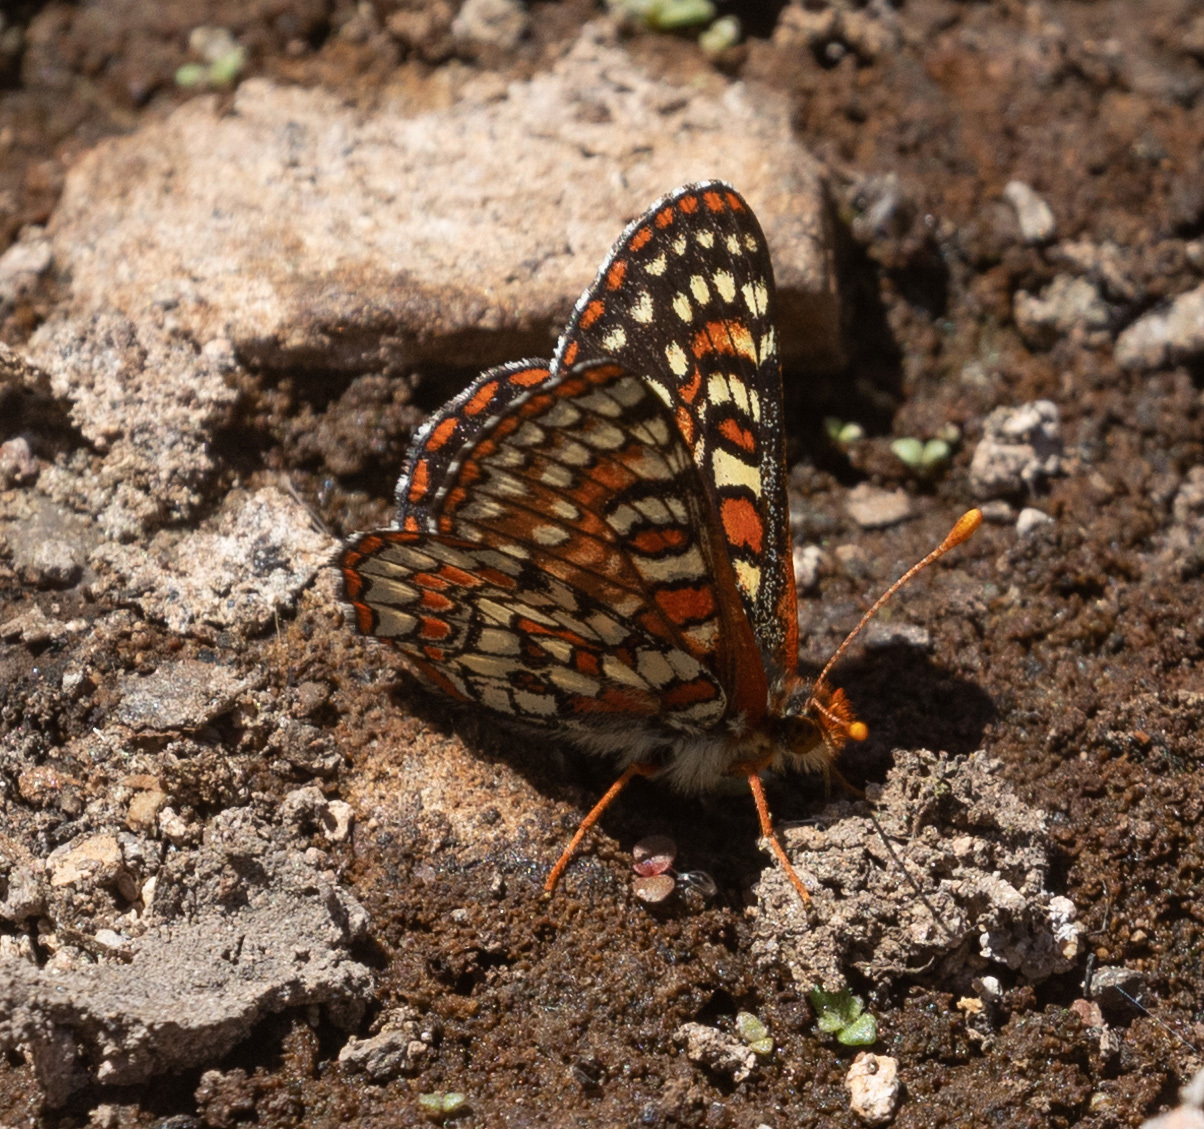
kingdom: Animalia
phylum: Arthropoda
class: Insecta
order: Lepidoptera
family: Nymphalidae
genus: Occidryas
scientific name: Occidryas editha
